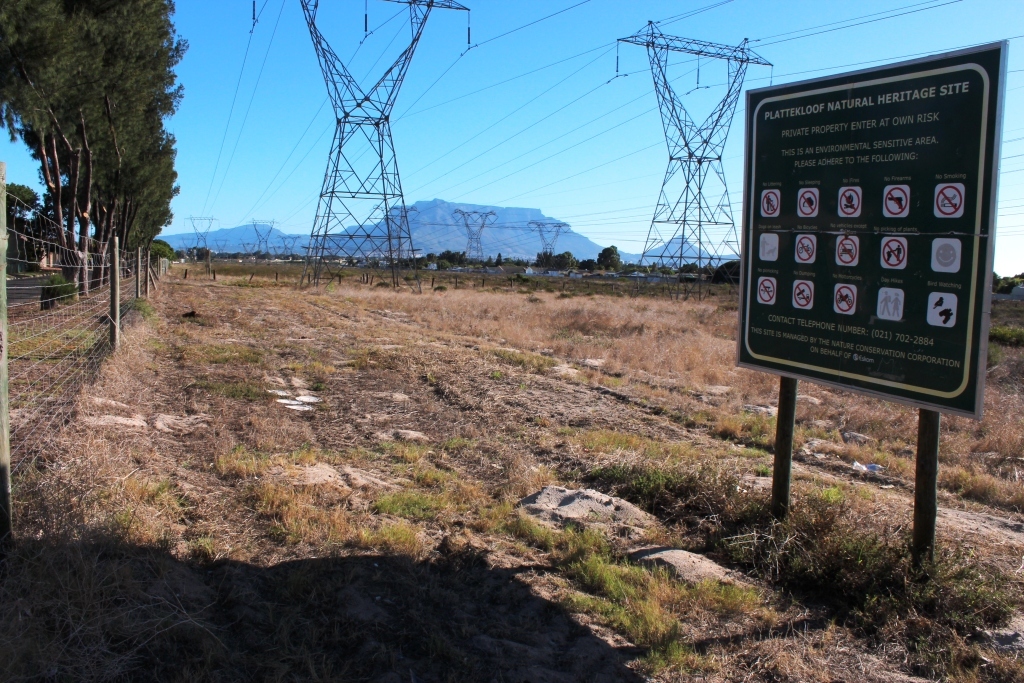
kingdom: Plantae
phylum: Tracheophyta
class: Magnoliopsida
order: Proteales
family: Proteaceae
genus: Protea
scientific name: Protea scolymocephala
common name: Thistle sugarbush
